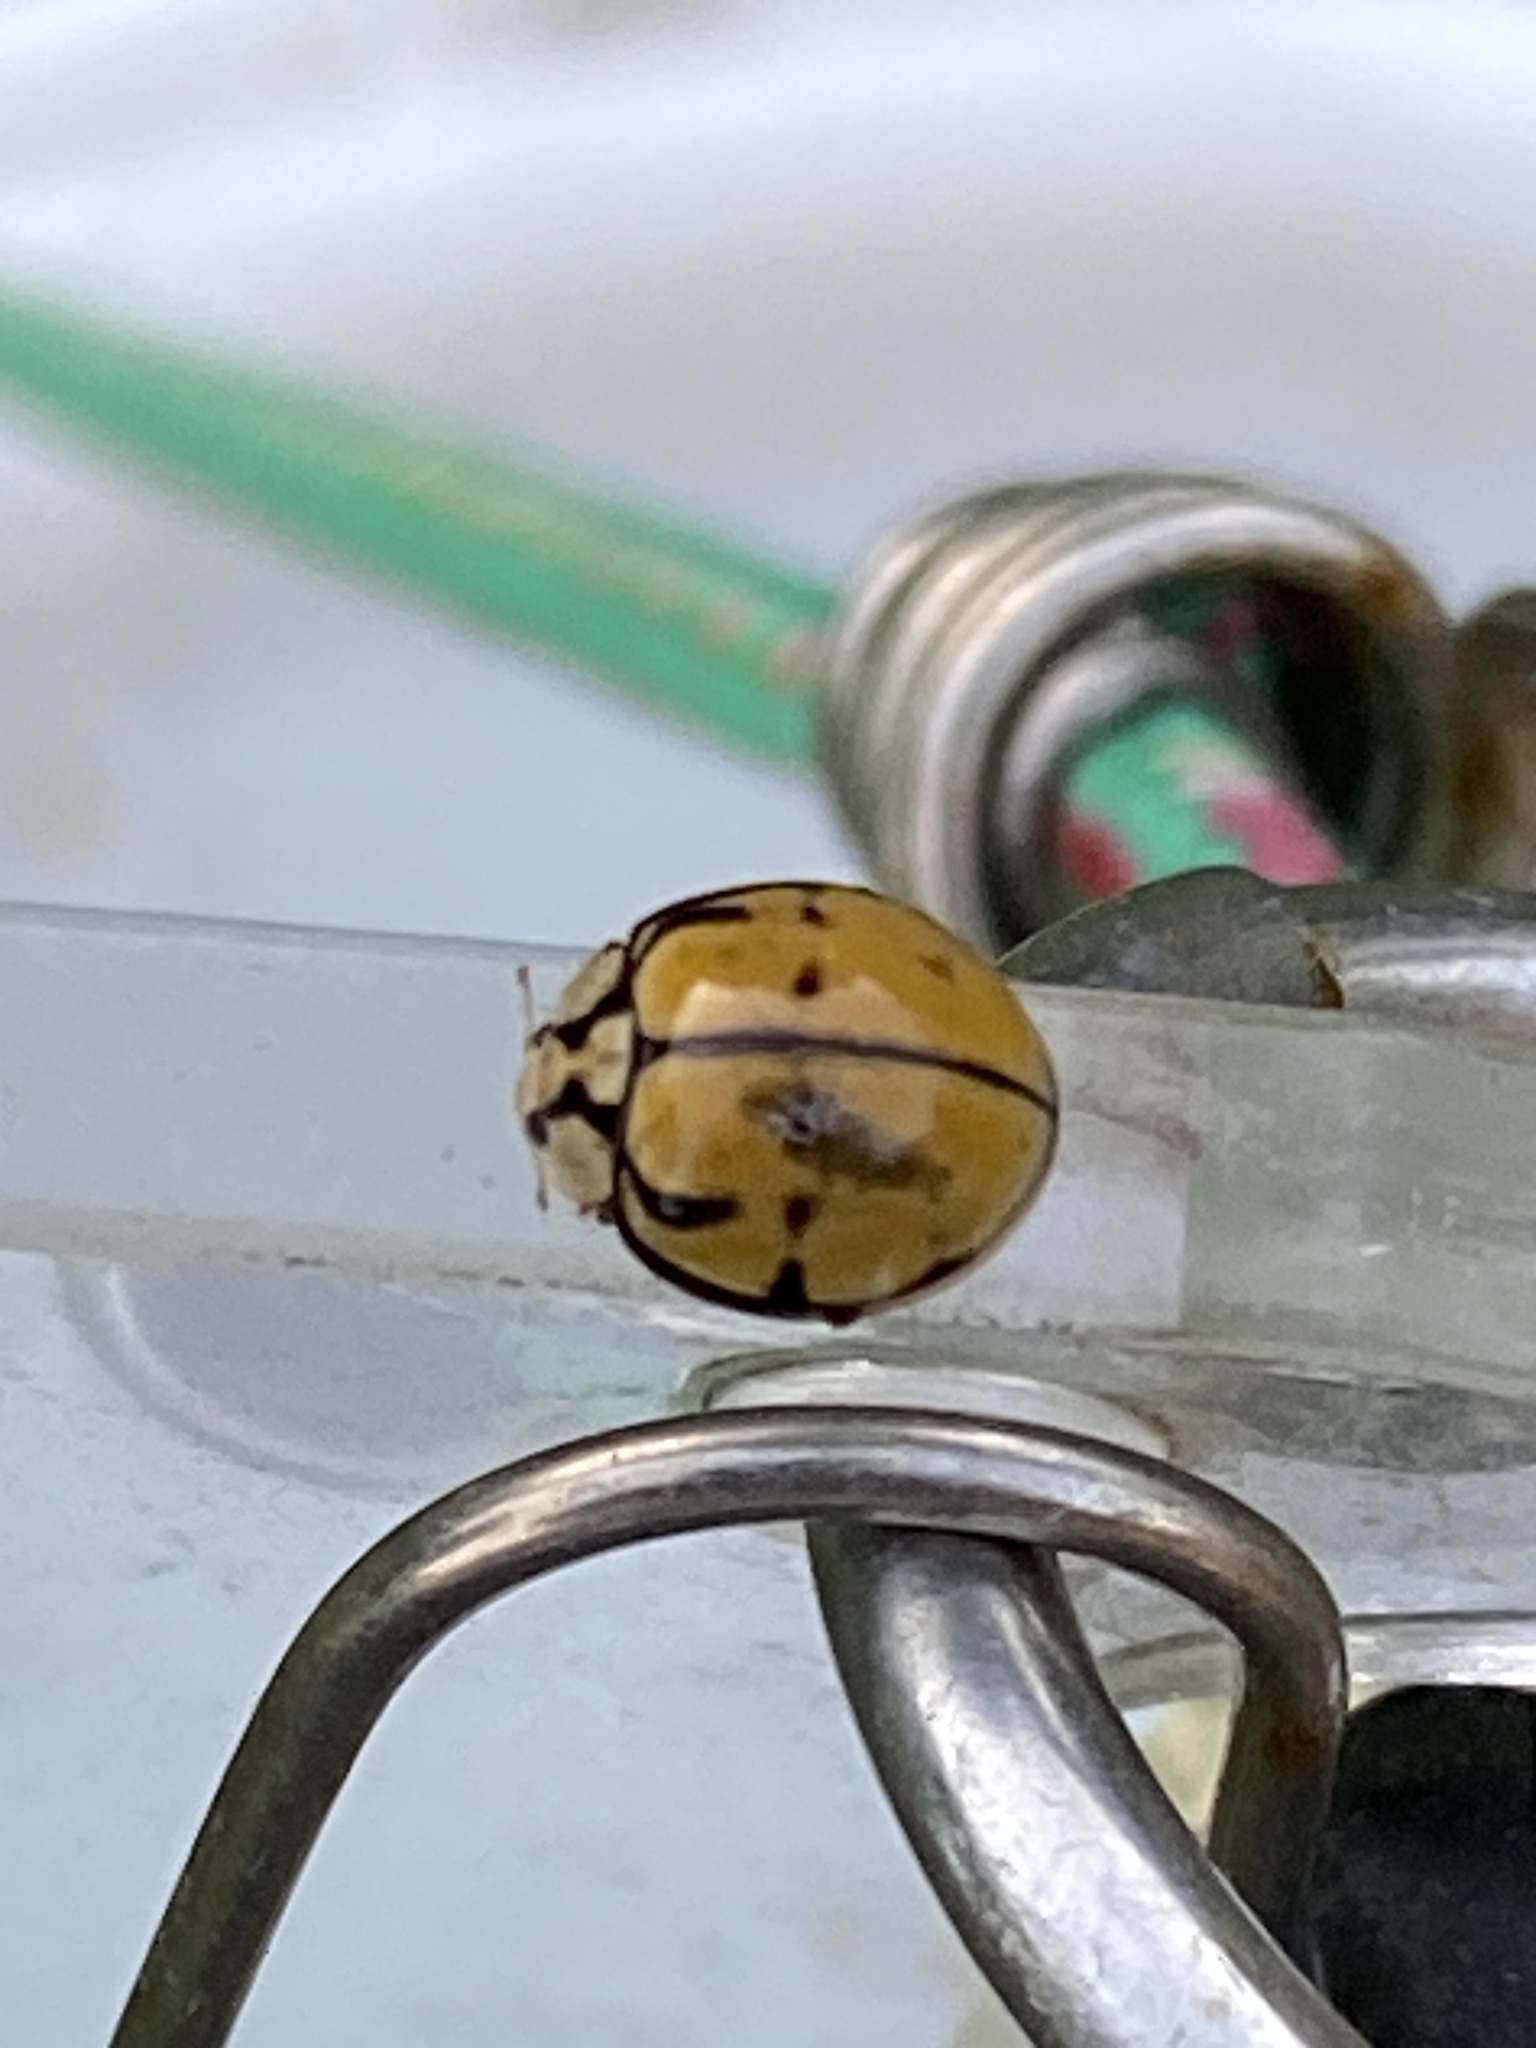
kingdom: Animalia
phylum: Arthropoda
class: Insecta
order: Coleoptera
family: Coccinellidae
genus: Harmonia
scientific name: Harmonia
